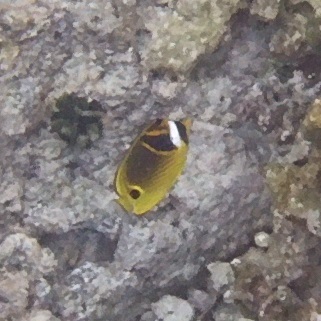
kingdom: Animalia
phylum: Chordata
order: Perciformes
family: Chaetodontidae
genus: Chaetodon
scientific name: Chaetodon lunula
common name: Raccoon butterflyfish
